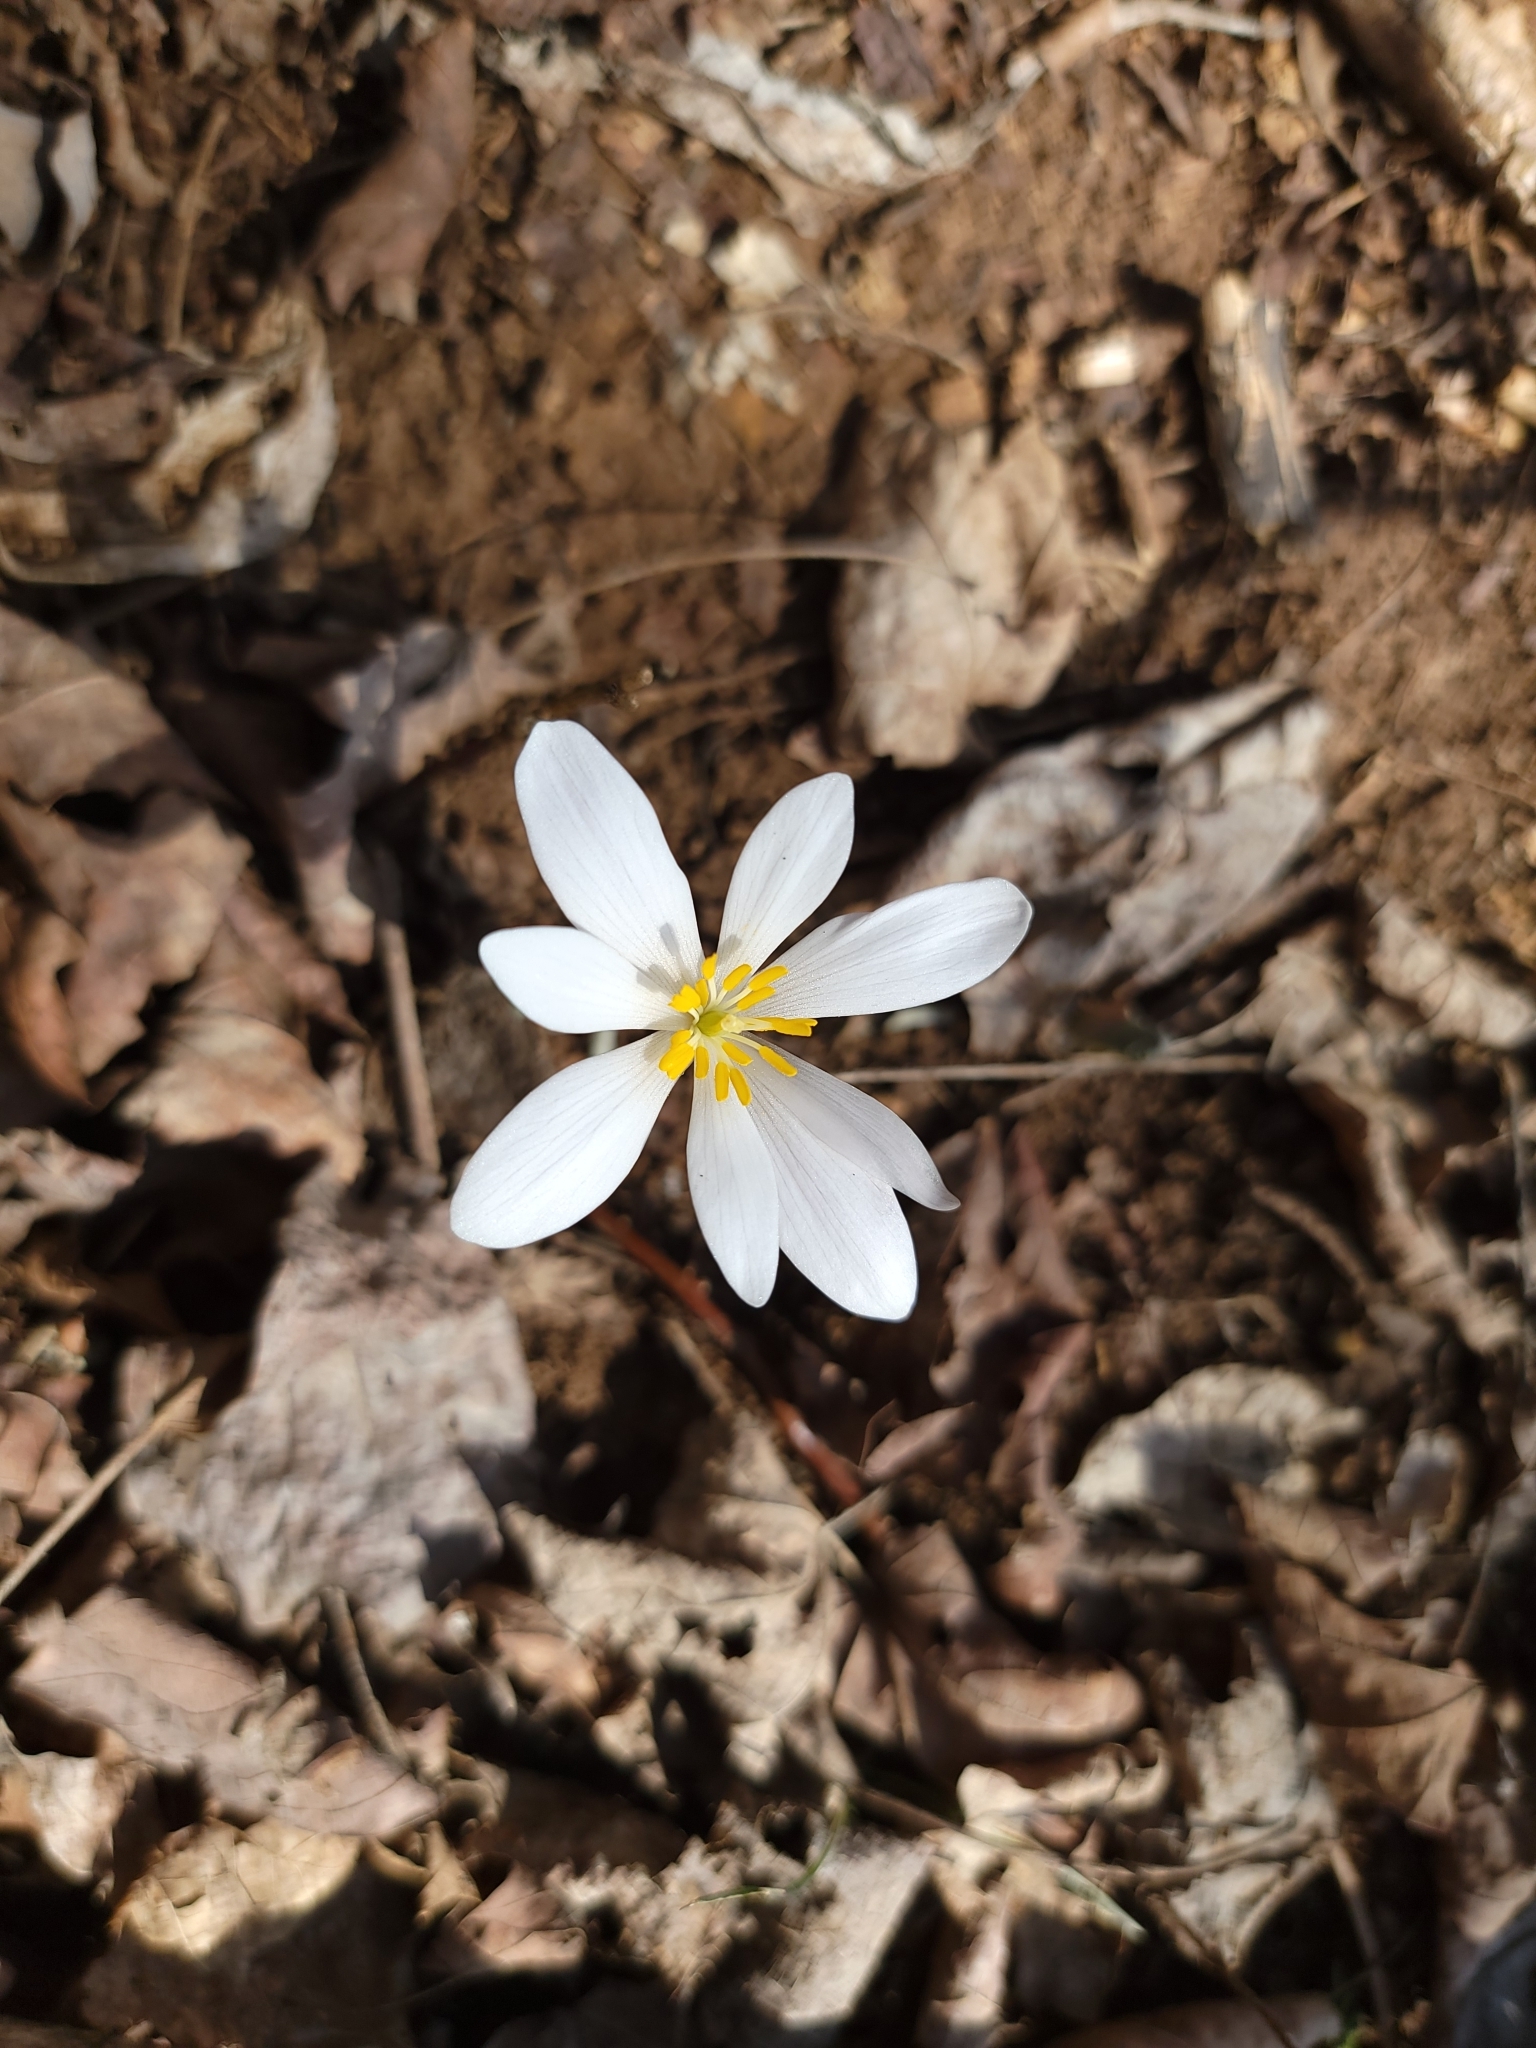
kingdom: Plantae
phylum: Tracheophyta
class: Magnoliopsida
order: Ranunculales
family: Papaveraceae
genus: Sanguinaria
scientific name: Sanguinaria canadensis
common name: Bloodroot
